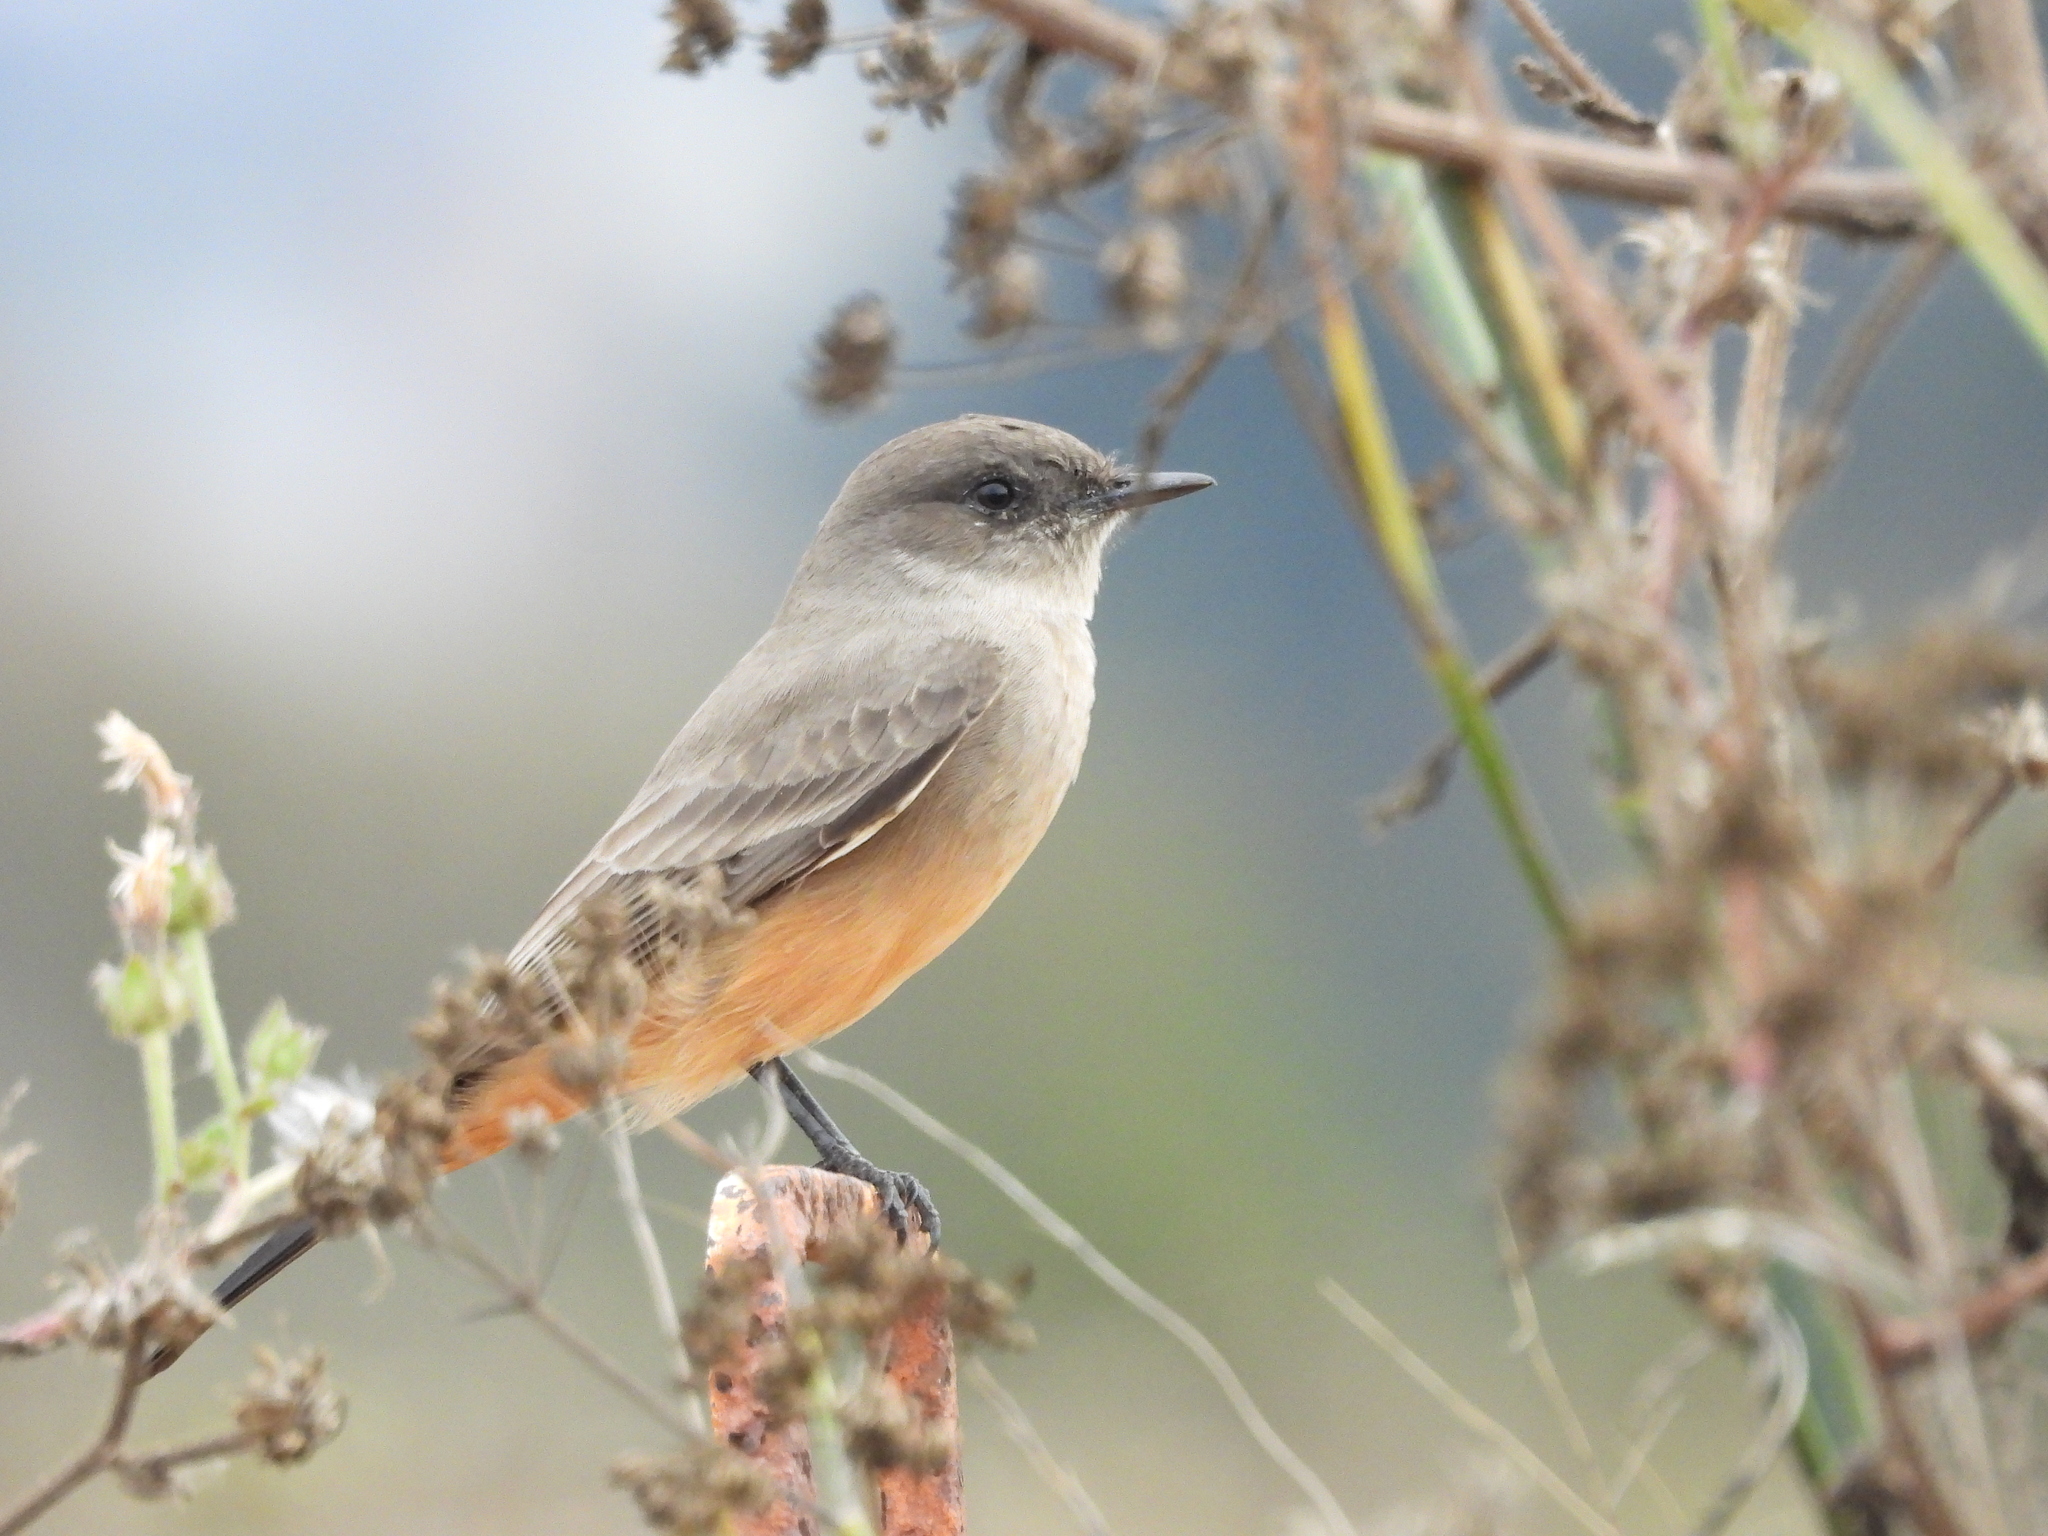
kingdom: Animalia
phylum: Chordata
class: Aves
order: Passeriformes
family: Tyrannidae
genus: Sayornis
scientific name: Sayornis saya
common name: Say's phoebe
